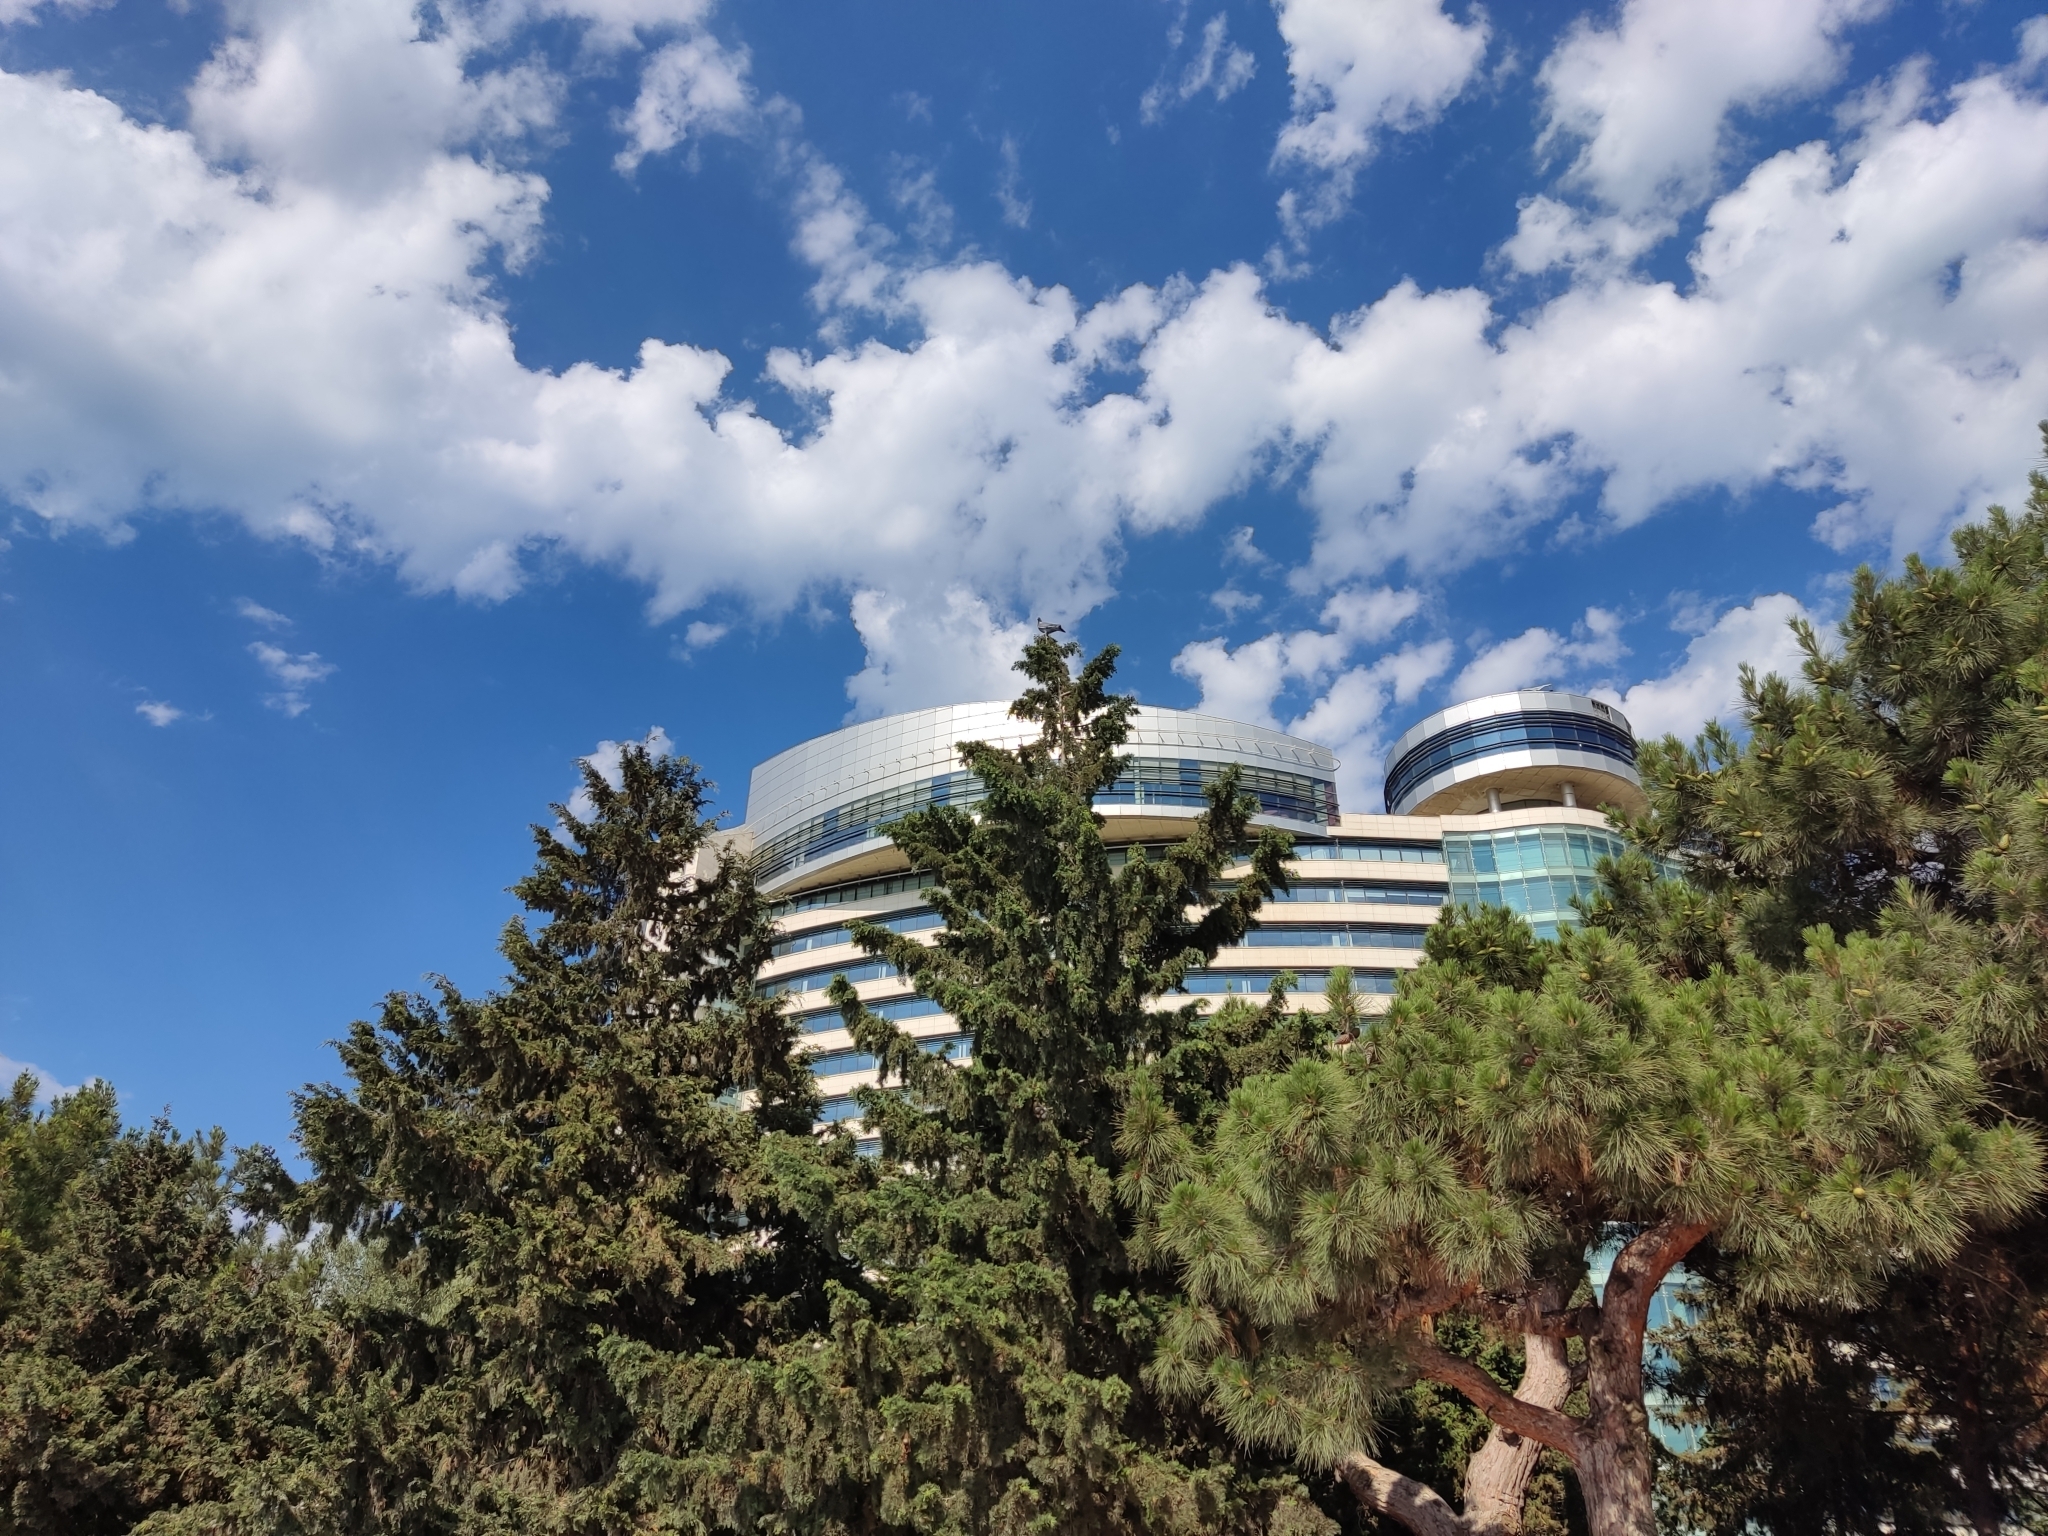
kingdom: Animalia
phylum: Chordata
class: Aves
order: Columbiformes
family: Columbidae
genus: Columba
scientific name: Columba palumbus
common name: Common wood pigeon
